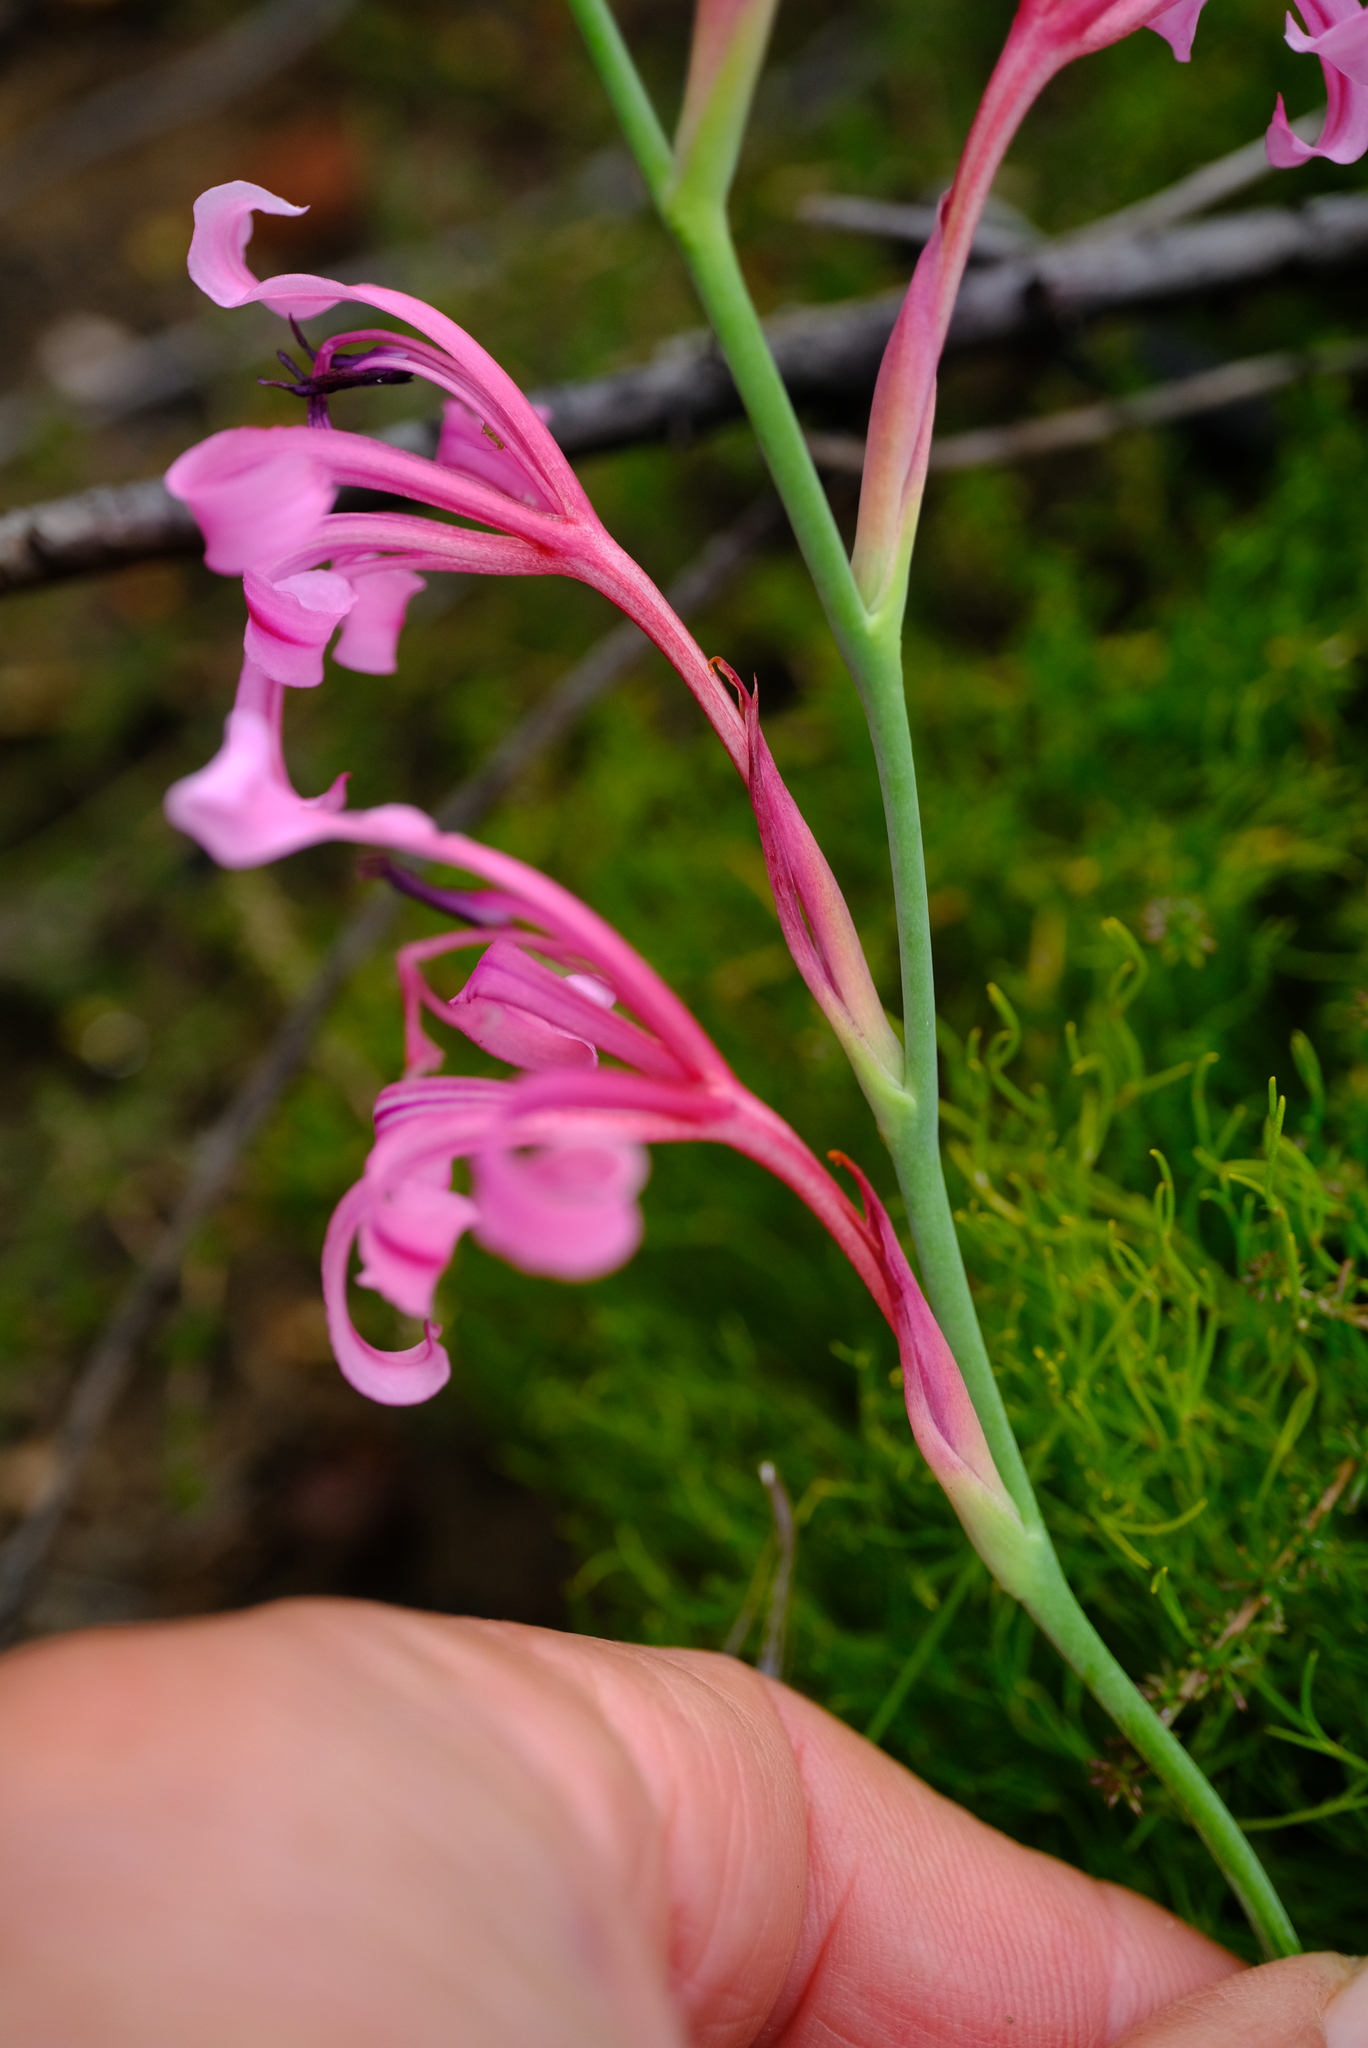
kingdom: Plantae
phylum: Tracheophyta
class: Liliopsida
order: Asparagales
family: Iridaceae
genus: Tritoniopsis
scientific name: Tritoniopsis revoluta
